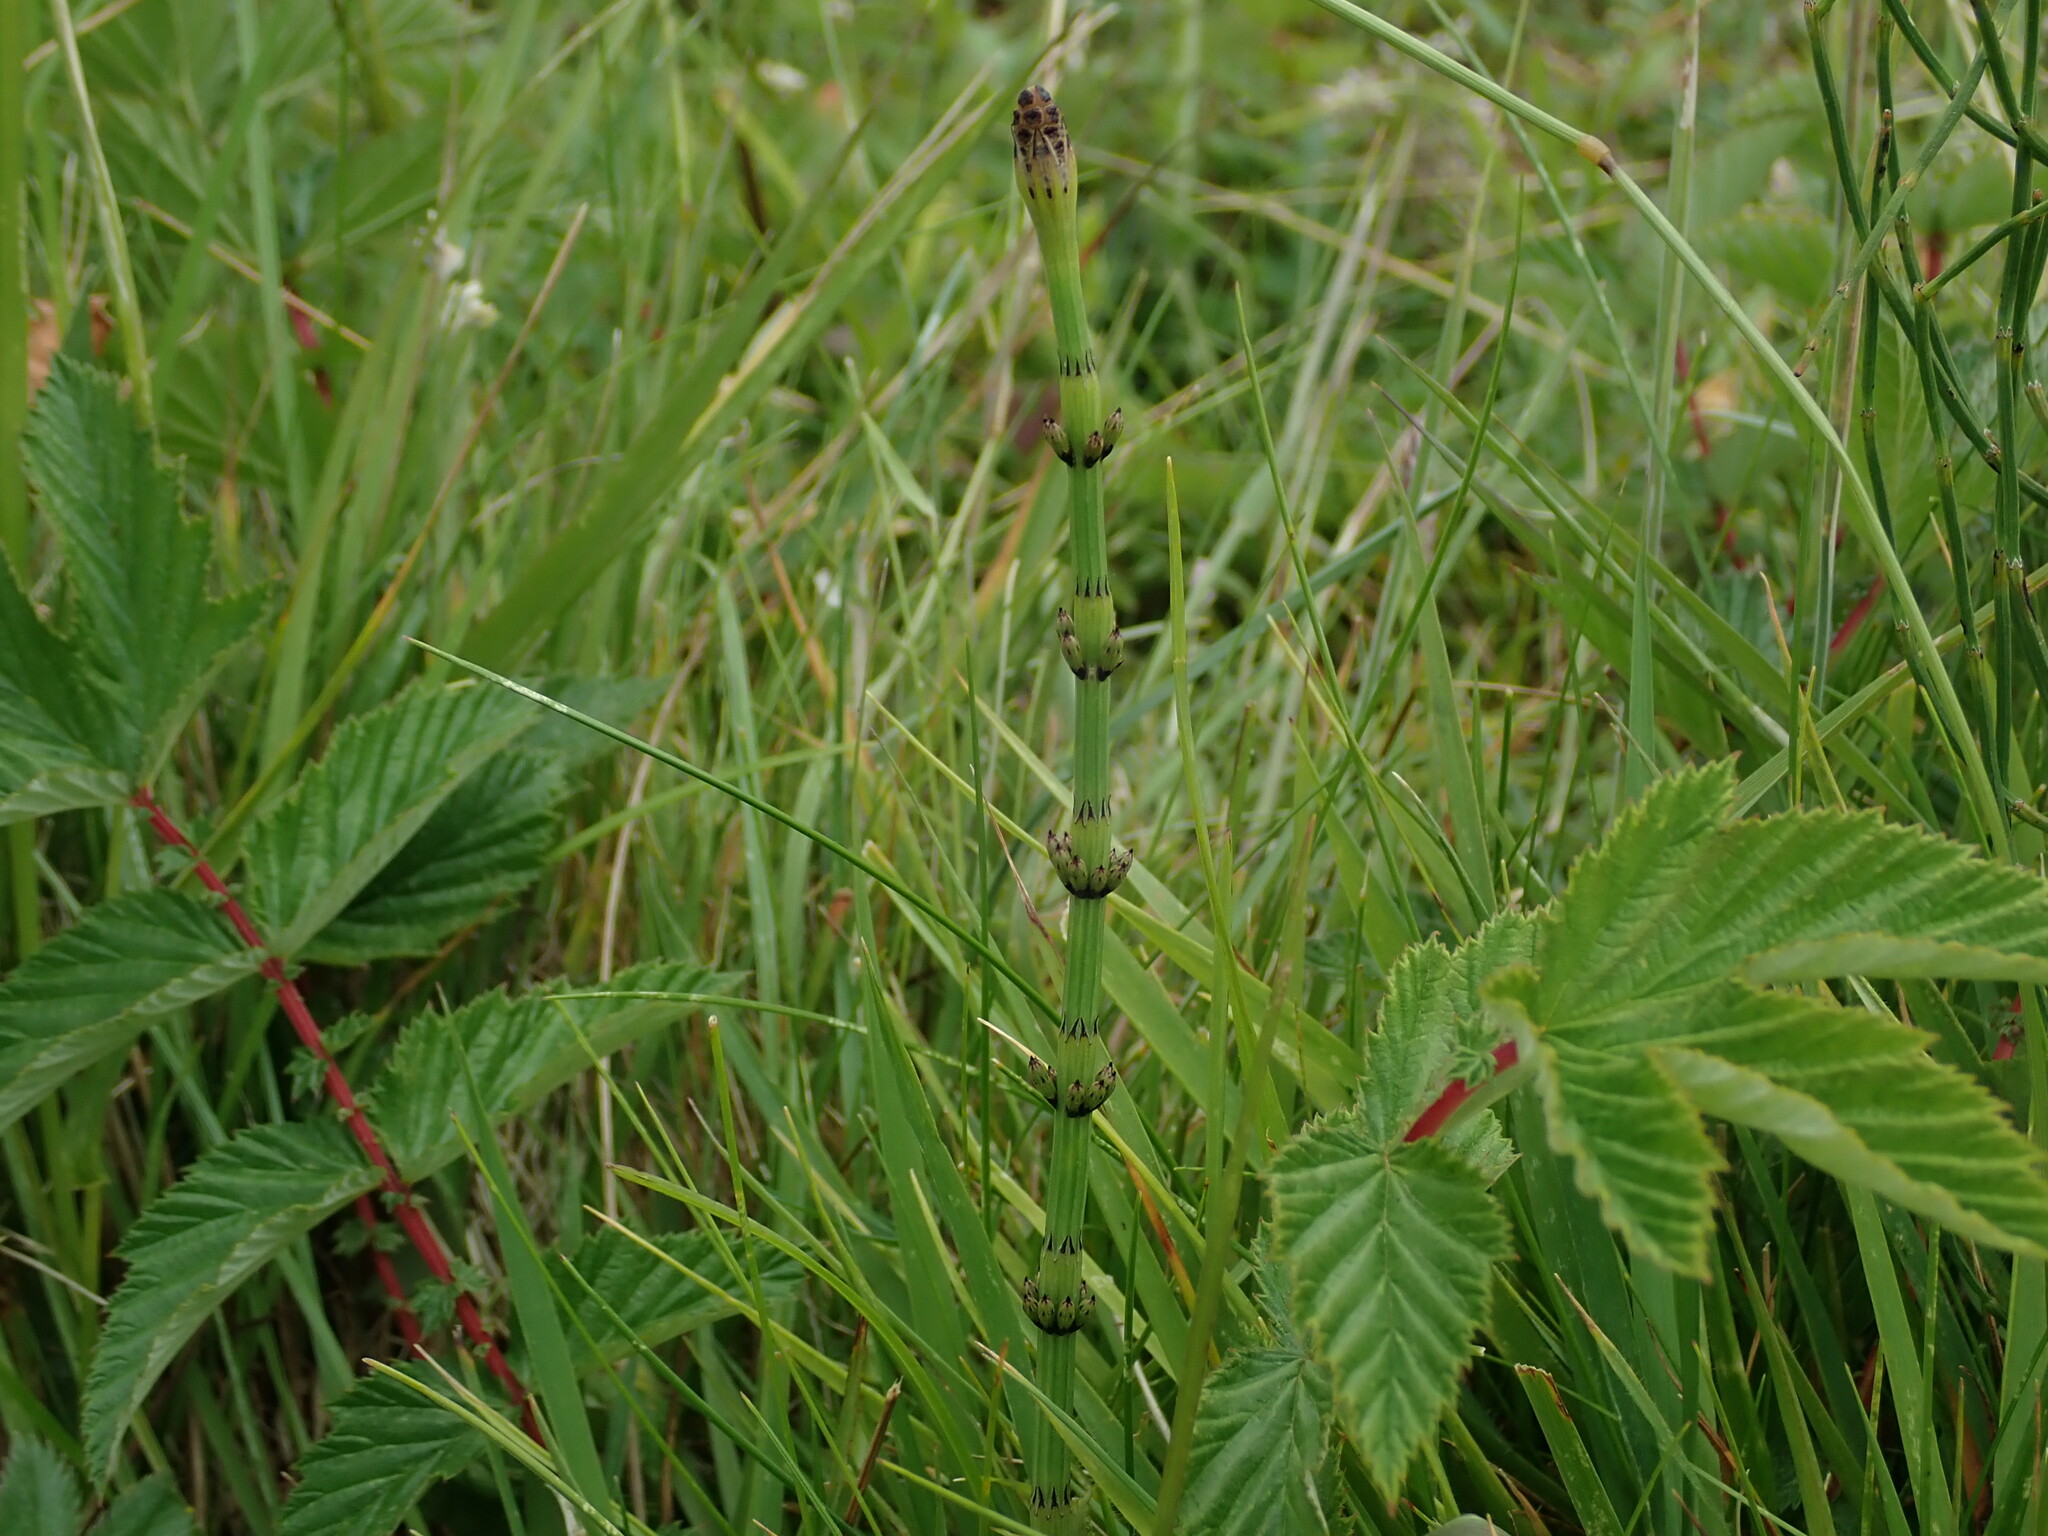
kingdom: Plantae
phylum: Tracheophyta
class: Polypodiopsida
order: Equisetales
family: Equisetaceae
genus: Equisetum
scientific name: Equisetum palustre
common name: Marsh horsetail
